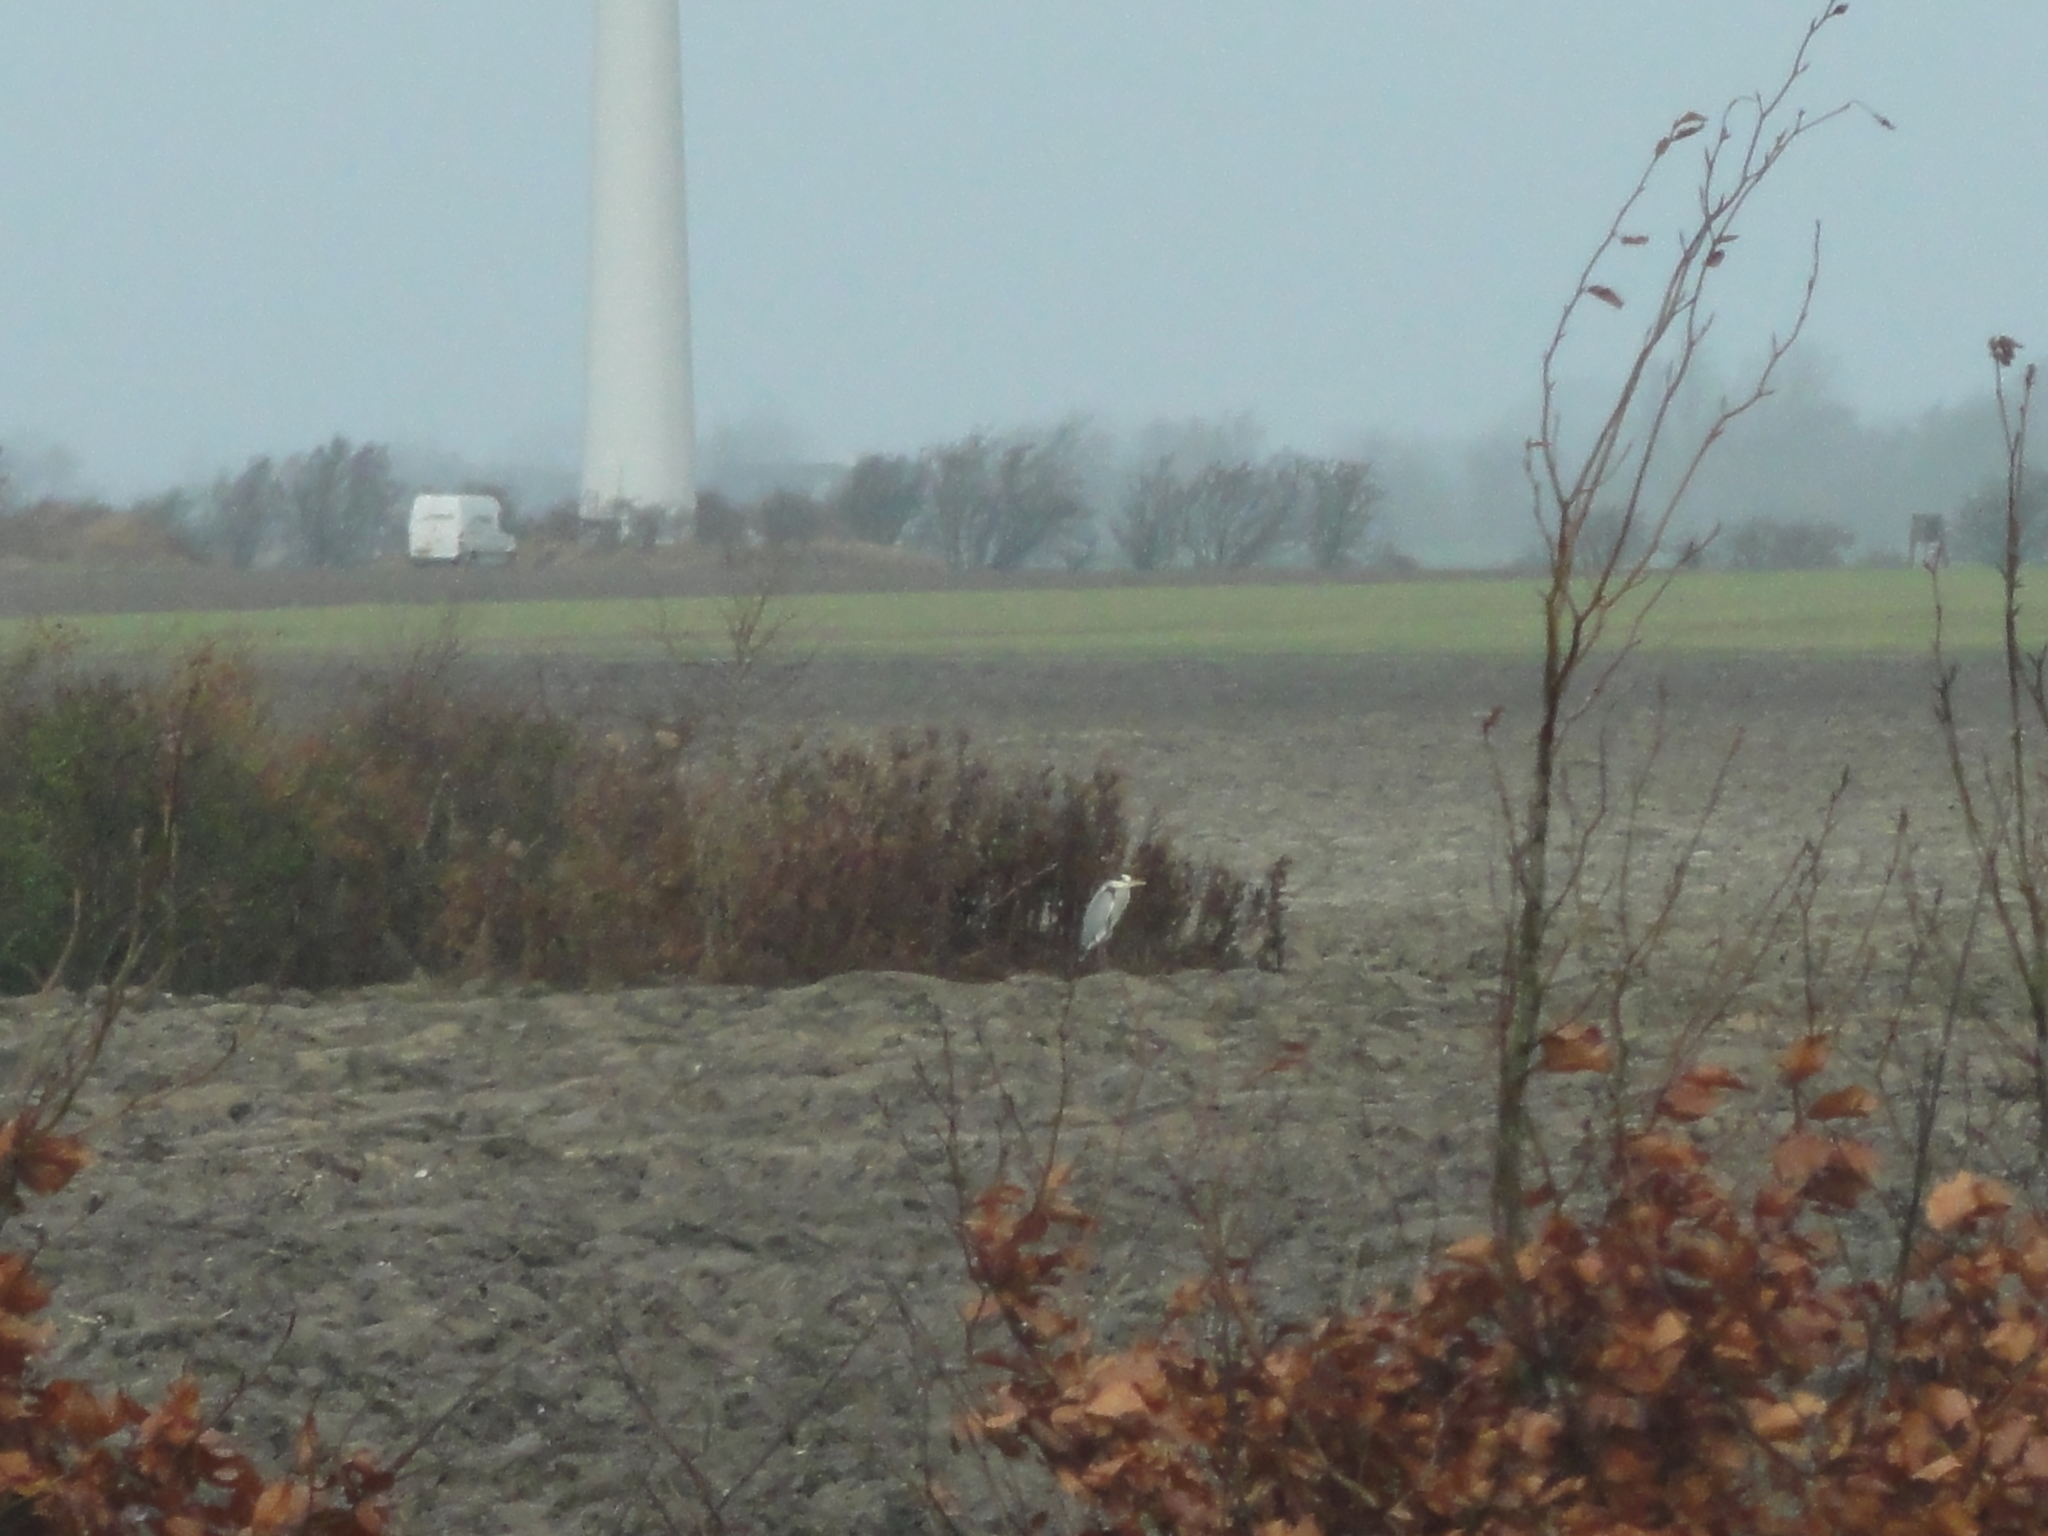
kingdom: Animalia
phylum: Chordata
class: Aves
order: Pelecaniformes
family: Ardeidae
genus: Ardea
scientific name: Ardea cinerea
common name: Grey heron
